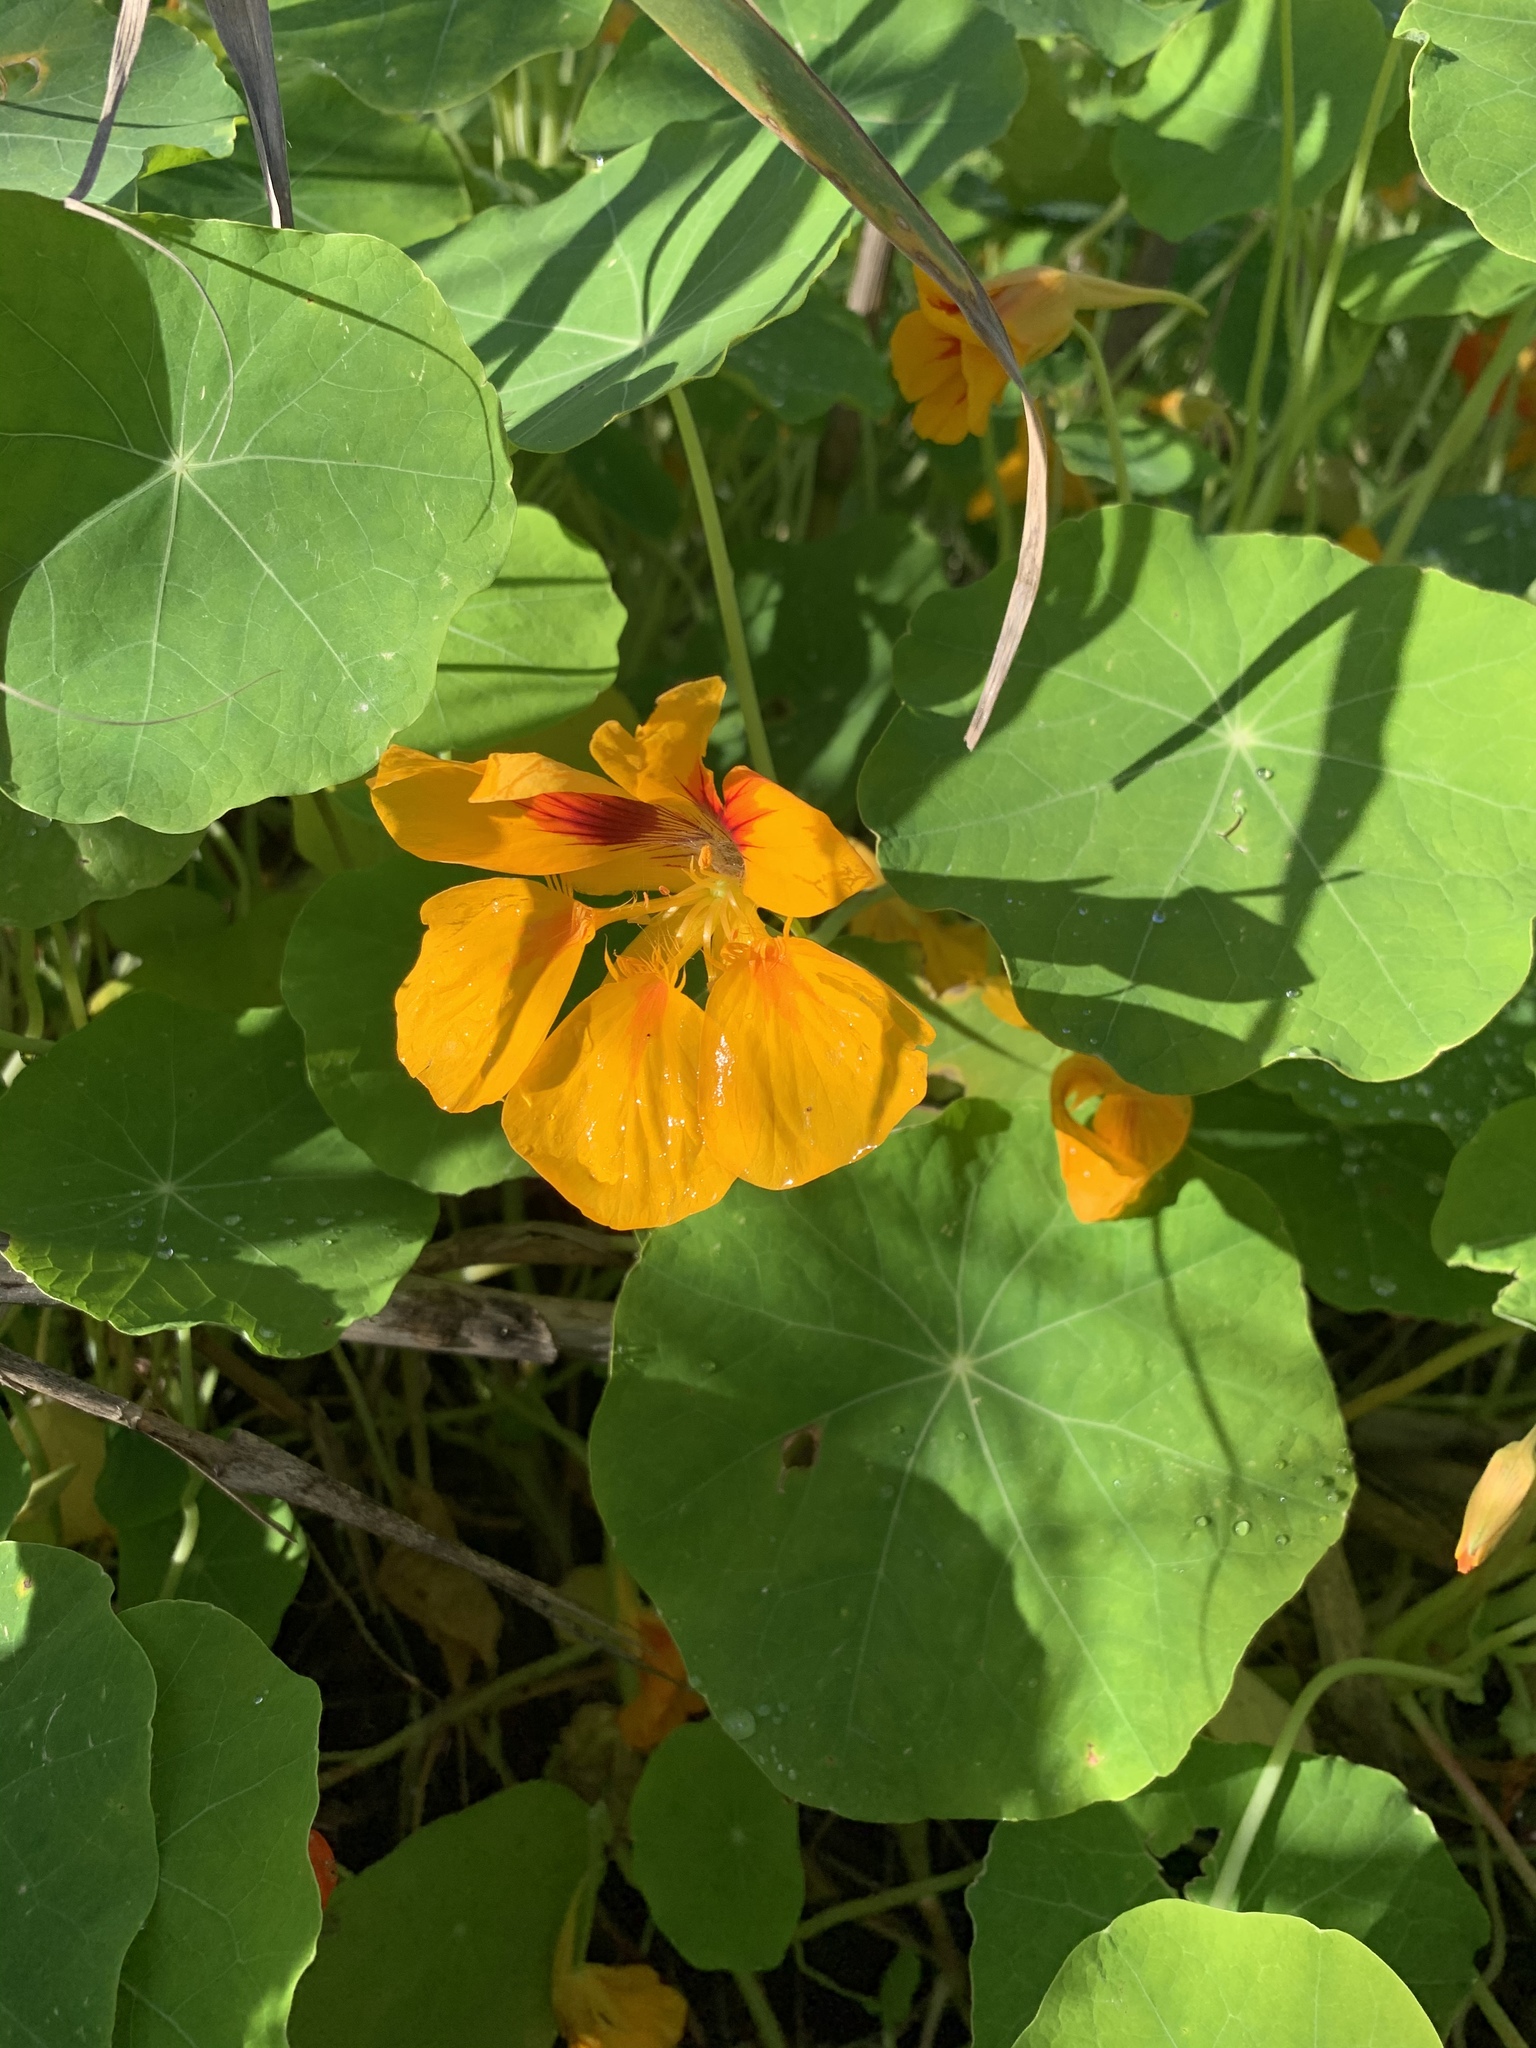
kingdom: Plantae
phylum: Tracheophyta
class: Magnoliopsida
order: Brassicales
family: Tropaeolaceae
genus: Tropaeolum
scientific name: Tropaeolum majus
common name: Nasturtium
